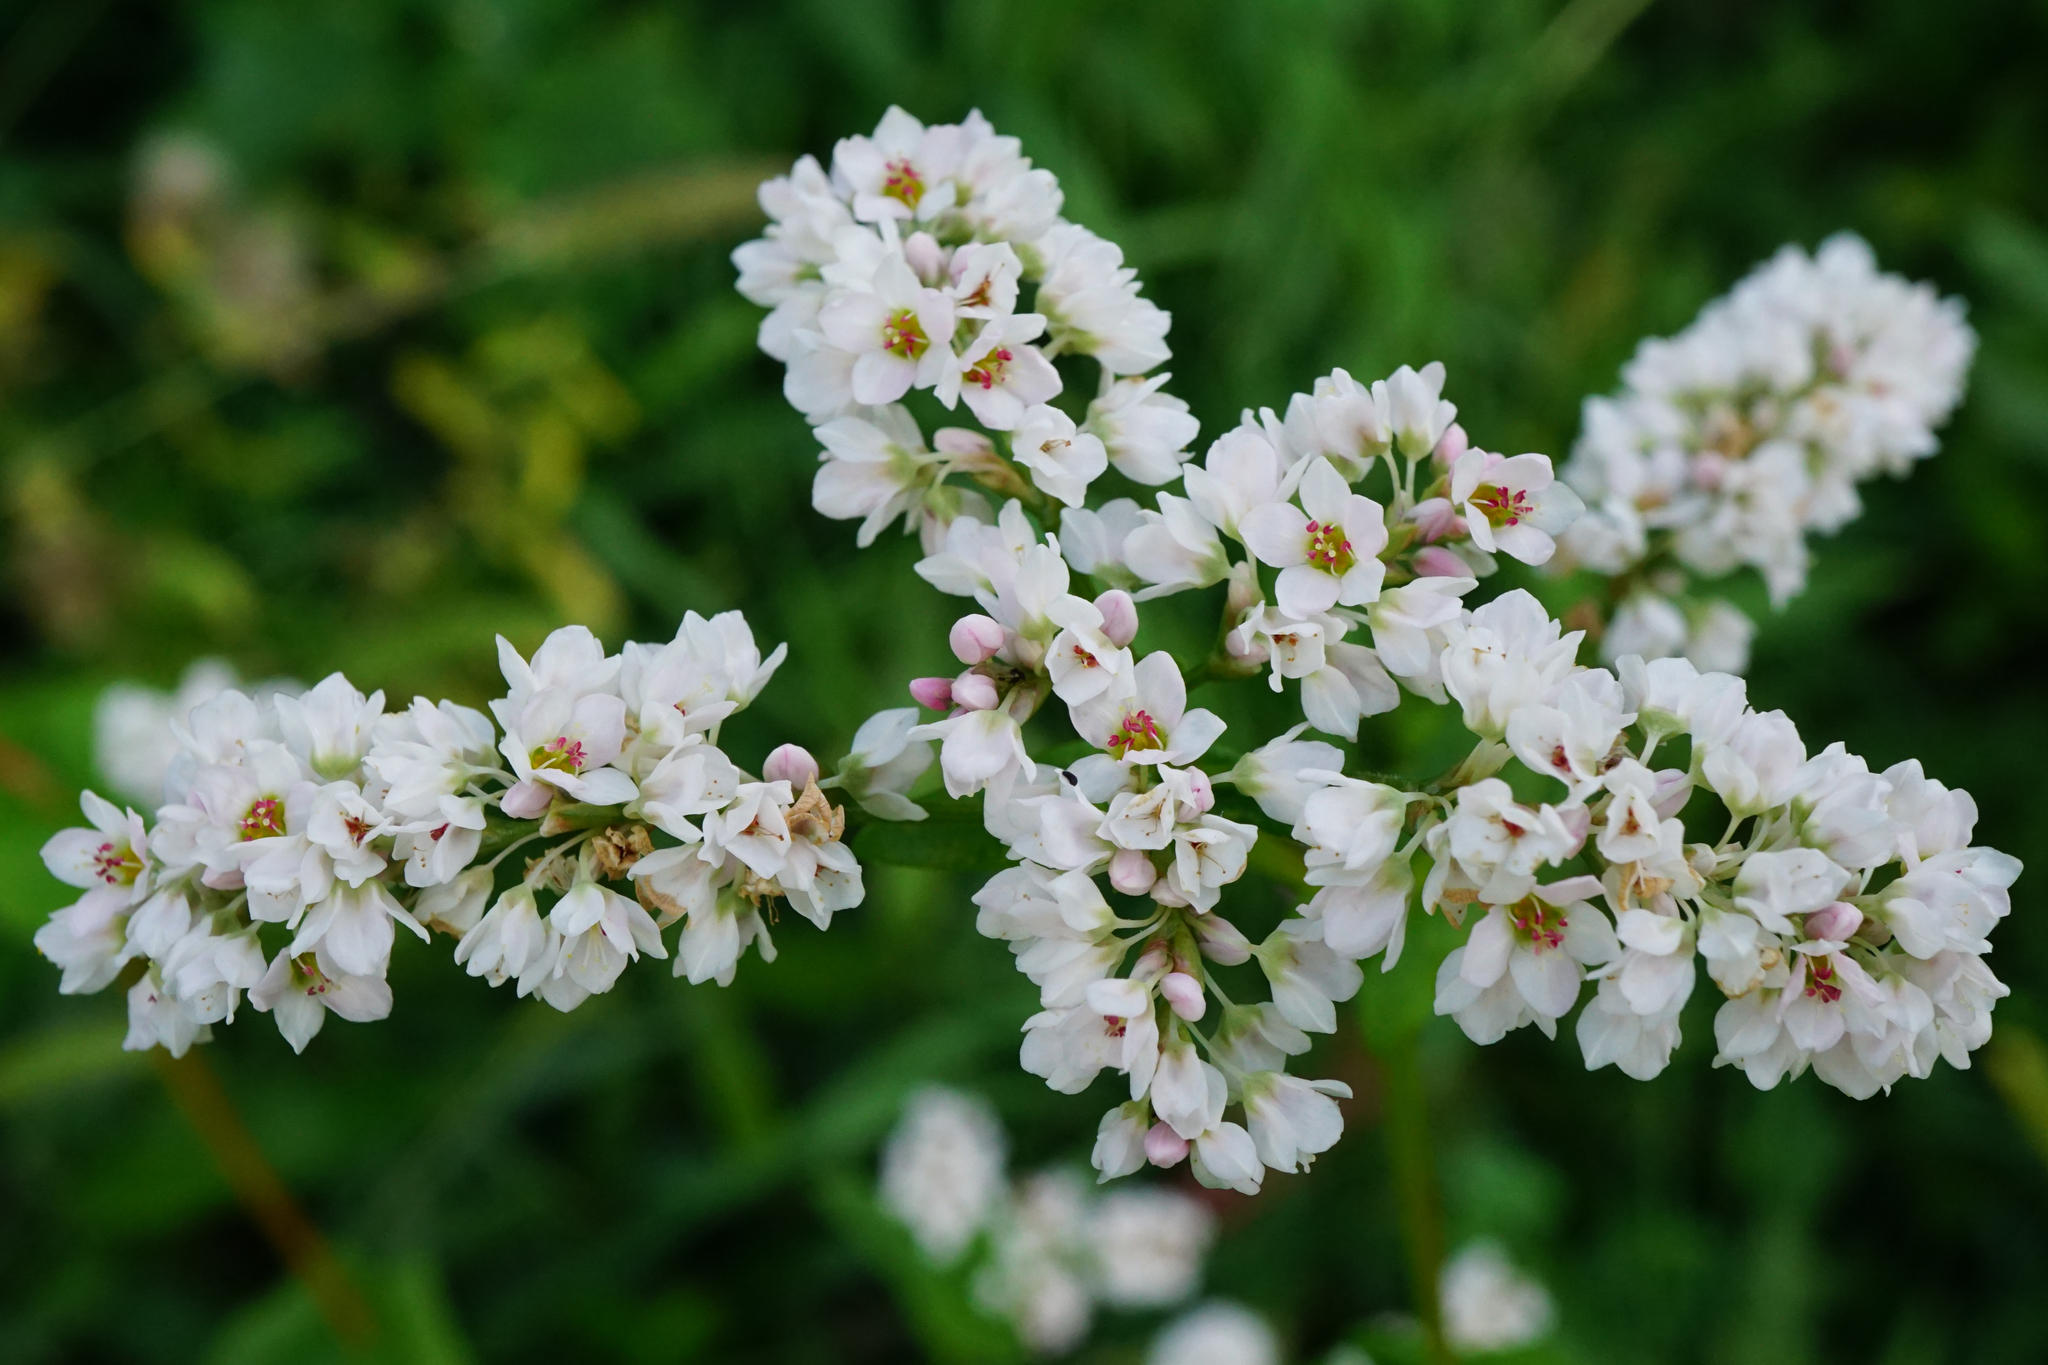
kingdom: Plantae
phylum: Tracheophyta
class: Magnoliopsida
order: Caryophyllales
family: Polygonaceae
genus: Fagopyrum
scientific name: Fagopyrum esculentum
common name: Buckwheat
